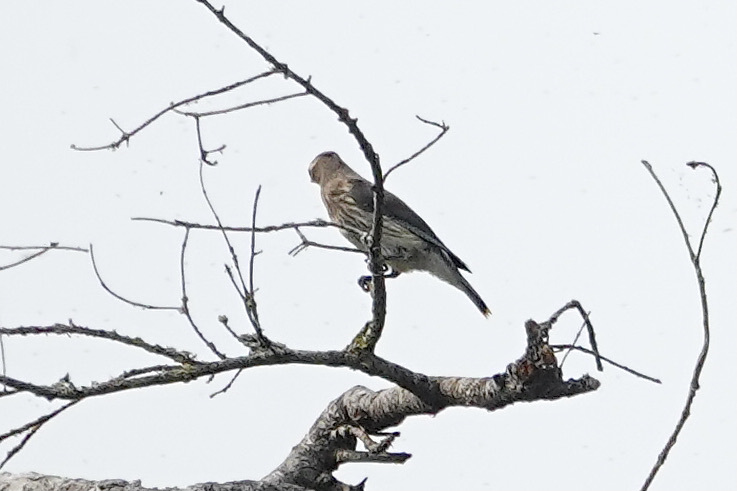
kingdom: Animalia
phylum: Chordata
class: Aves
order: Passeriformes
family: Bombycillidae
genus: Bombycilla
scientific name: Bombycilla cedrorum
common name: Cedar waxwing
